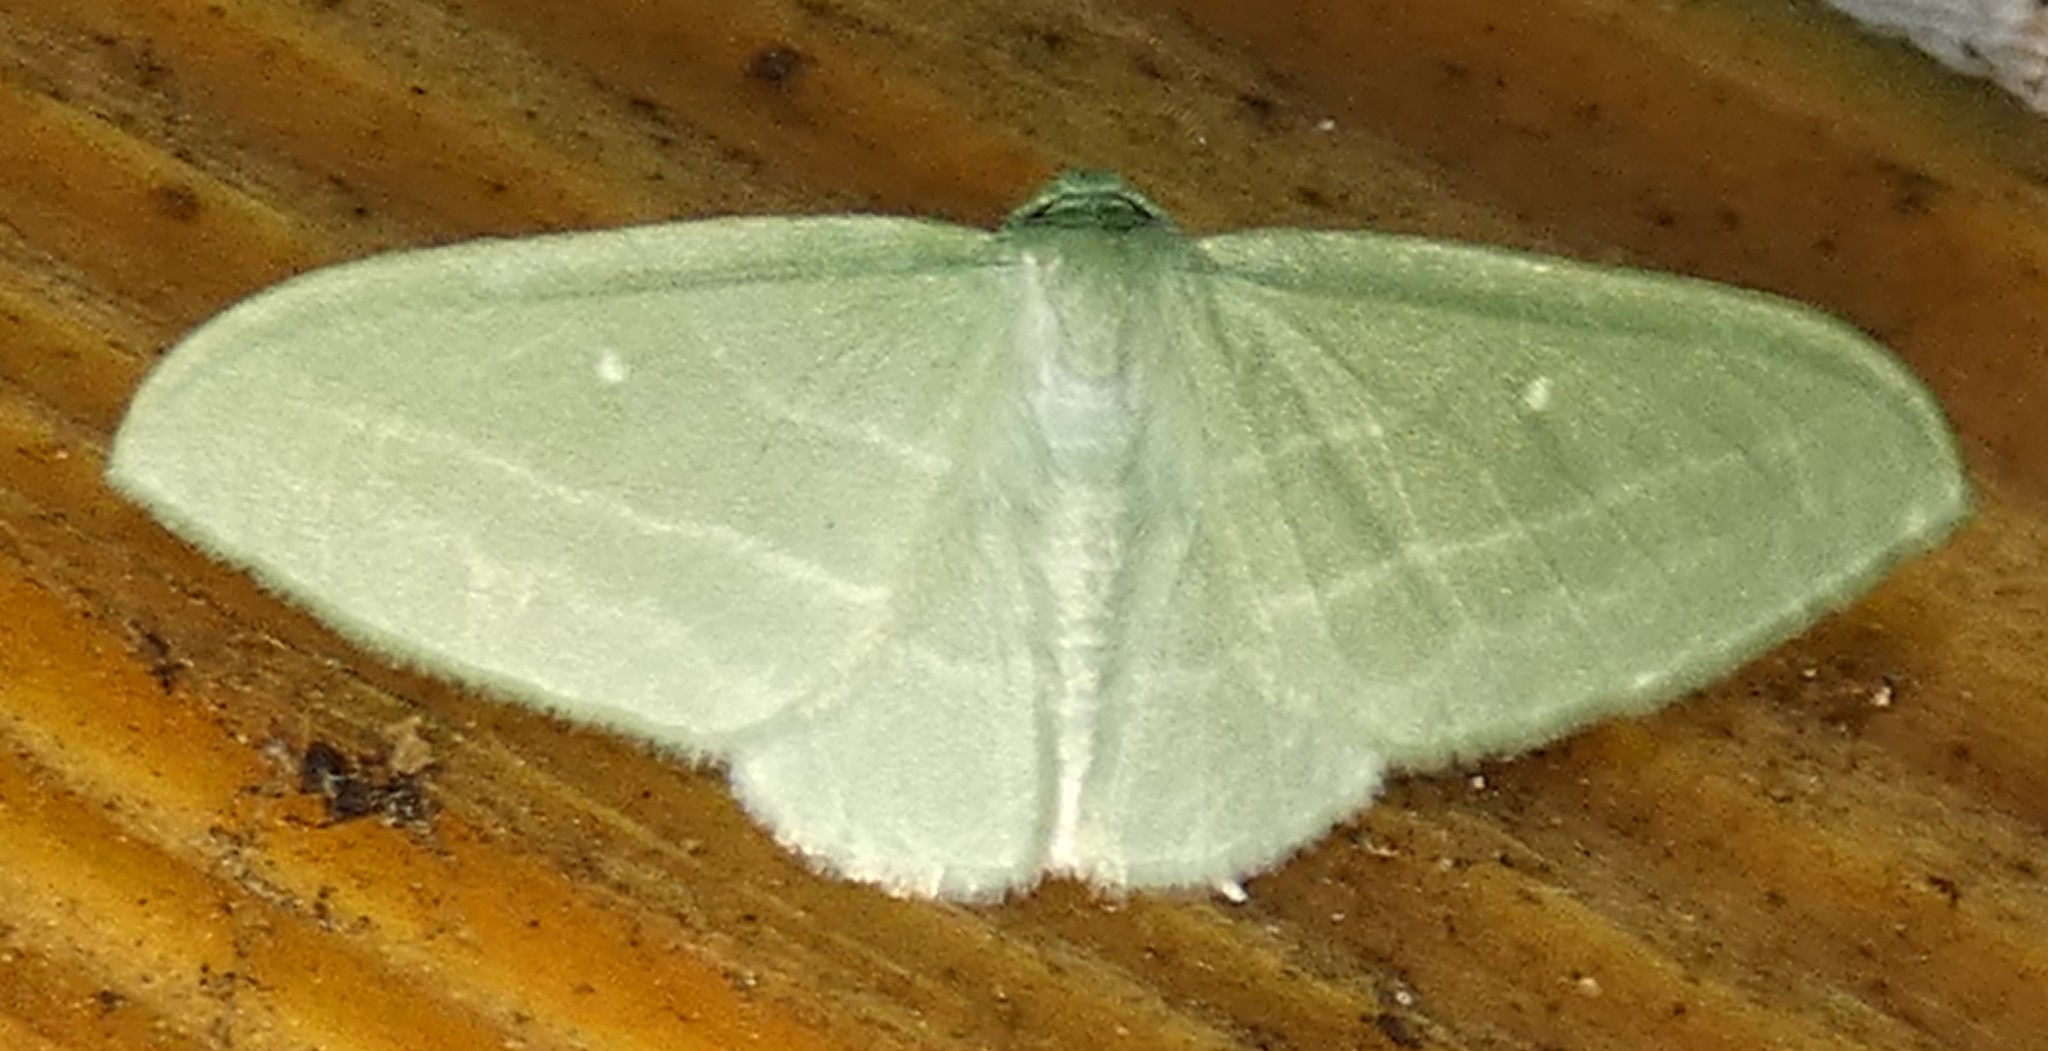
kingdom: Animalia
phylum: Arthropoda
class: Insecta
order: Lepidoptera
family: Geometridae
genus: Dyspteris
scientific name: Dyspteris abortivaria
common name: Bad-wing
